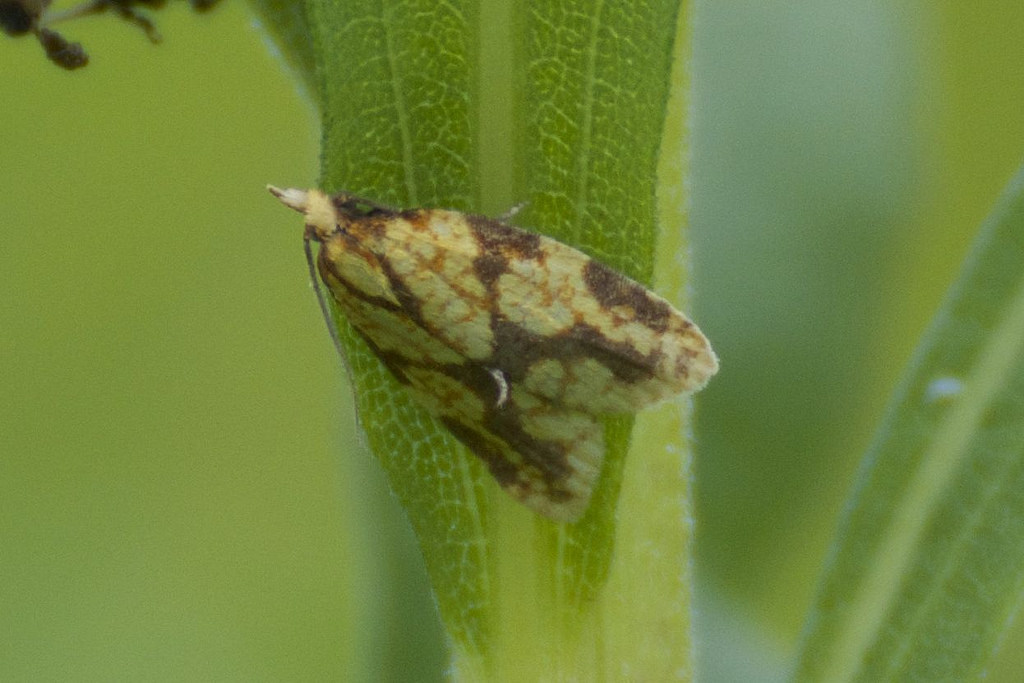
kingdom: Animalia
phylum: Arthropoda
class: Insecta
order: Lepidoptera
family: Tortricidae
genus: Sparganothis
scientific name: Sparganothis sulfureana
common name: Sparganothis fruitworm moth
